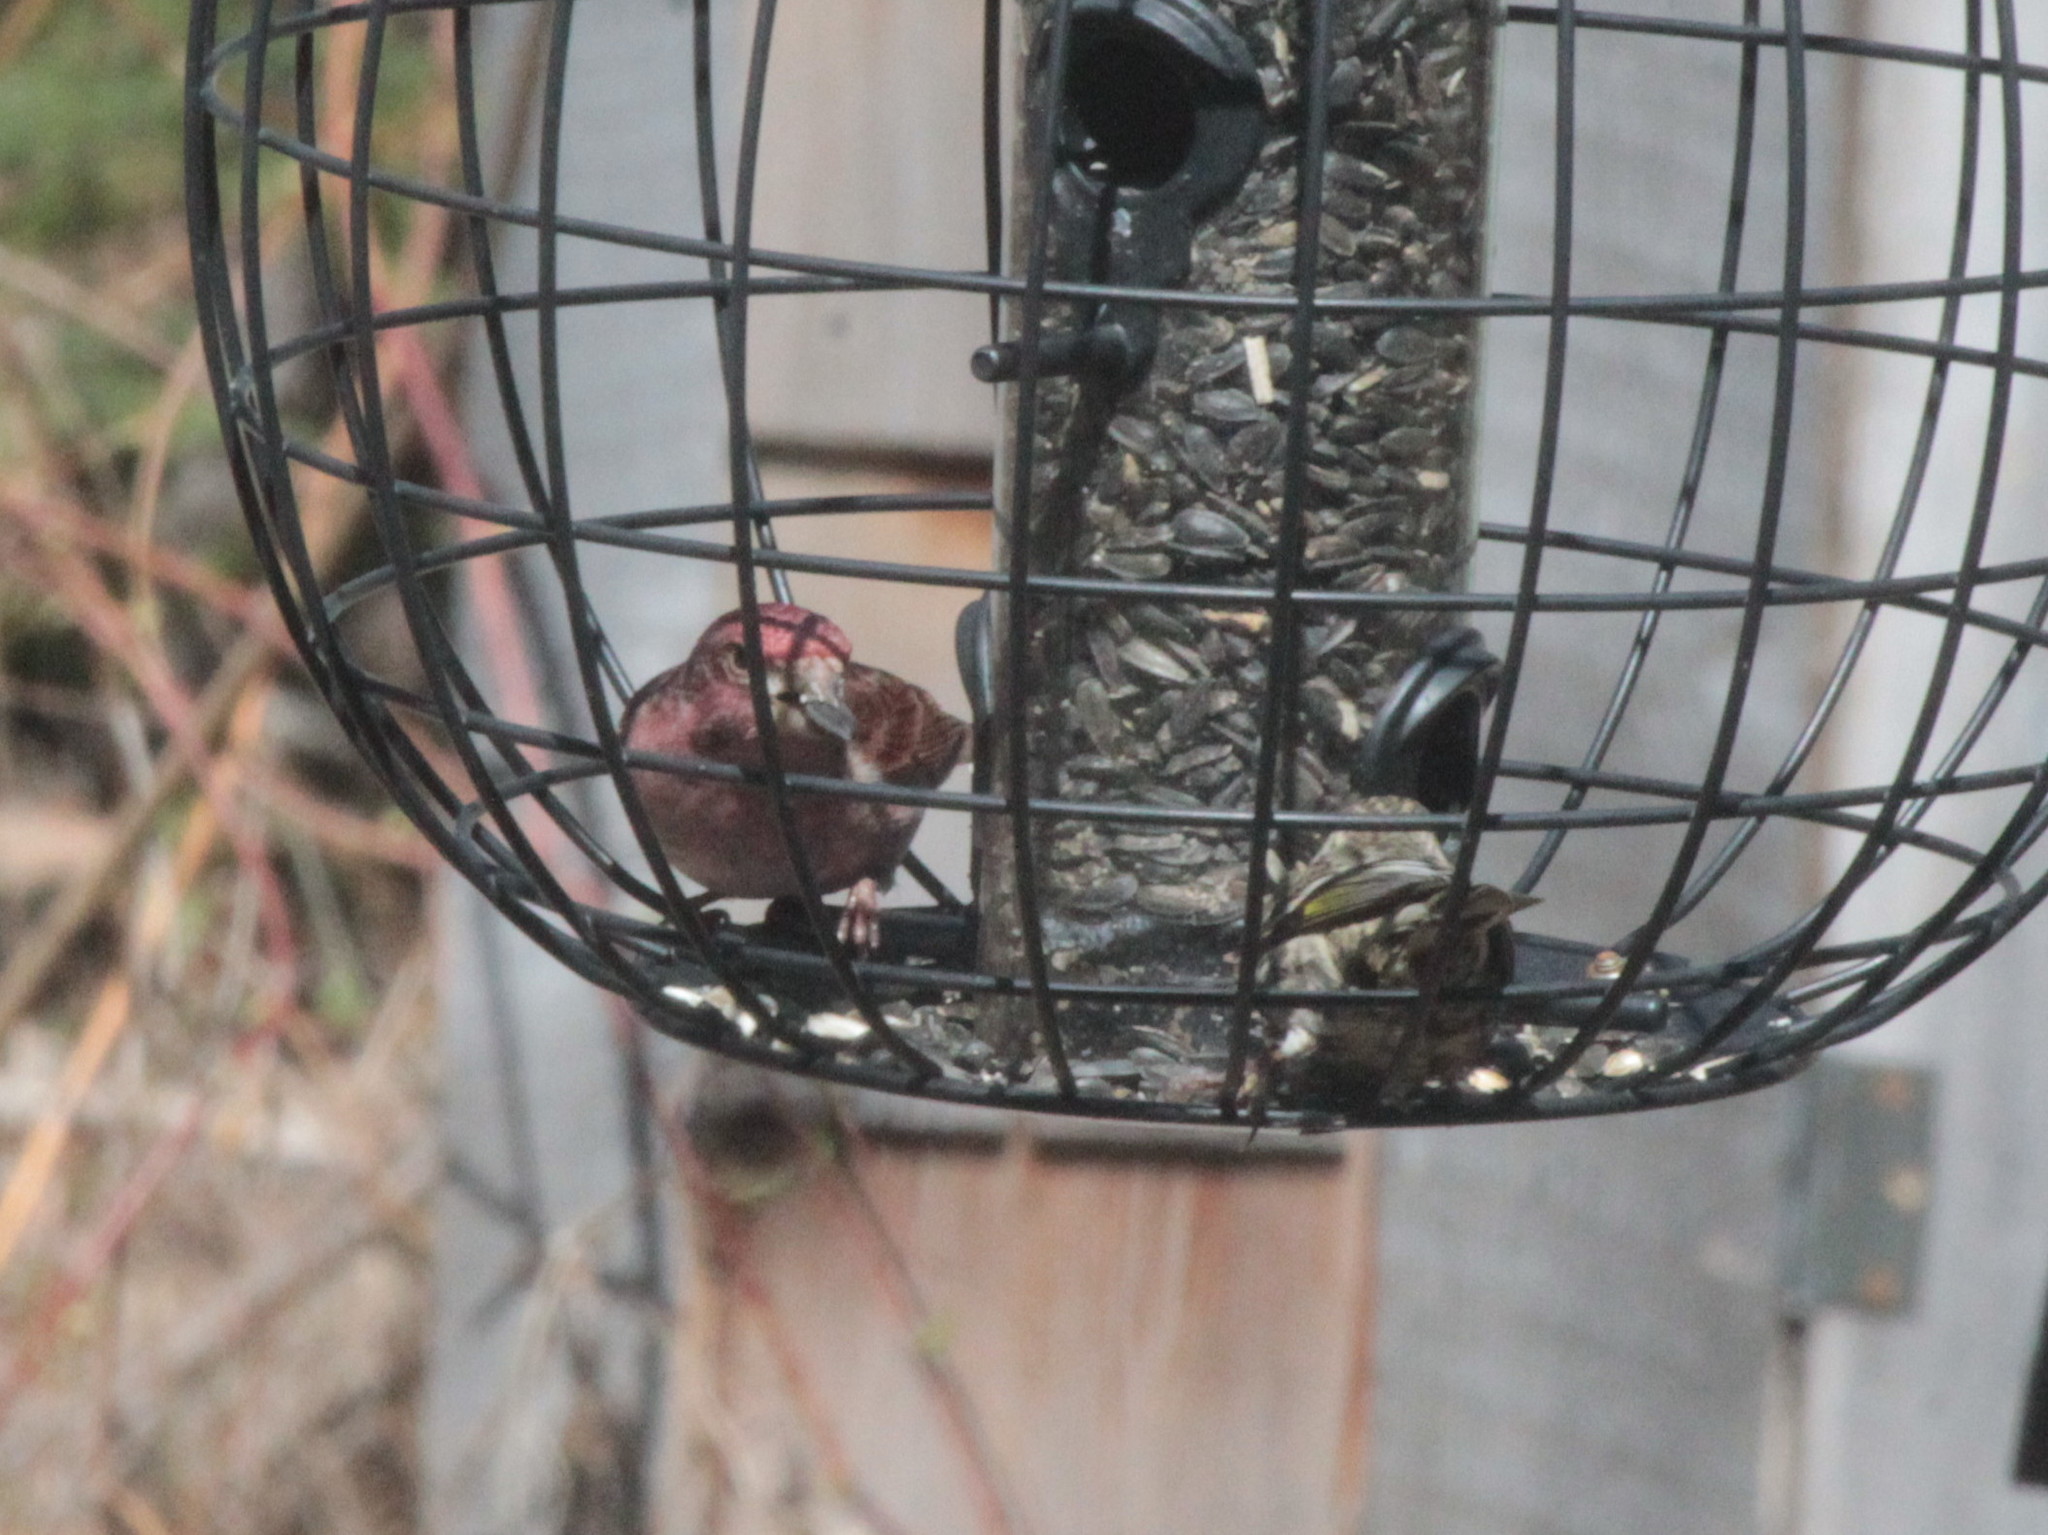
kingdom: Animalia
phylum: Chordata
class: Aves
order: Passeriformes
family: Fringillidae
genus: Haemorhous
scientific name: Haemorhous purpureus
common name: Purple finch
